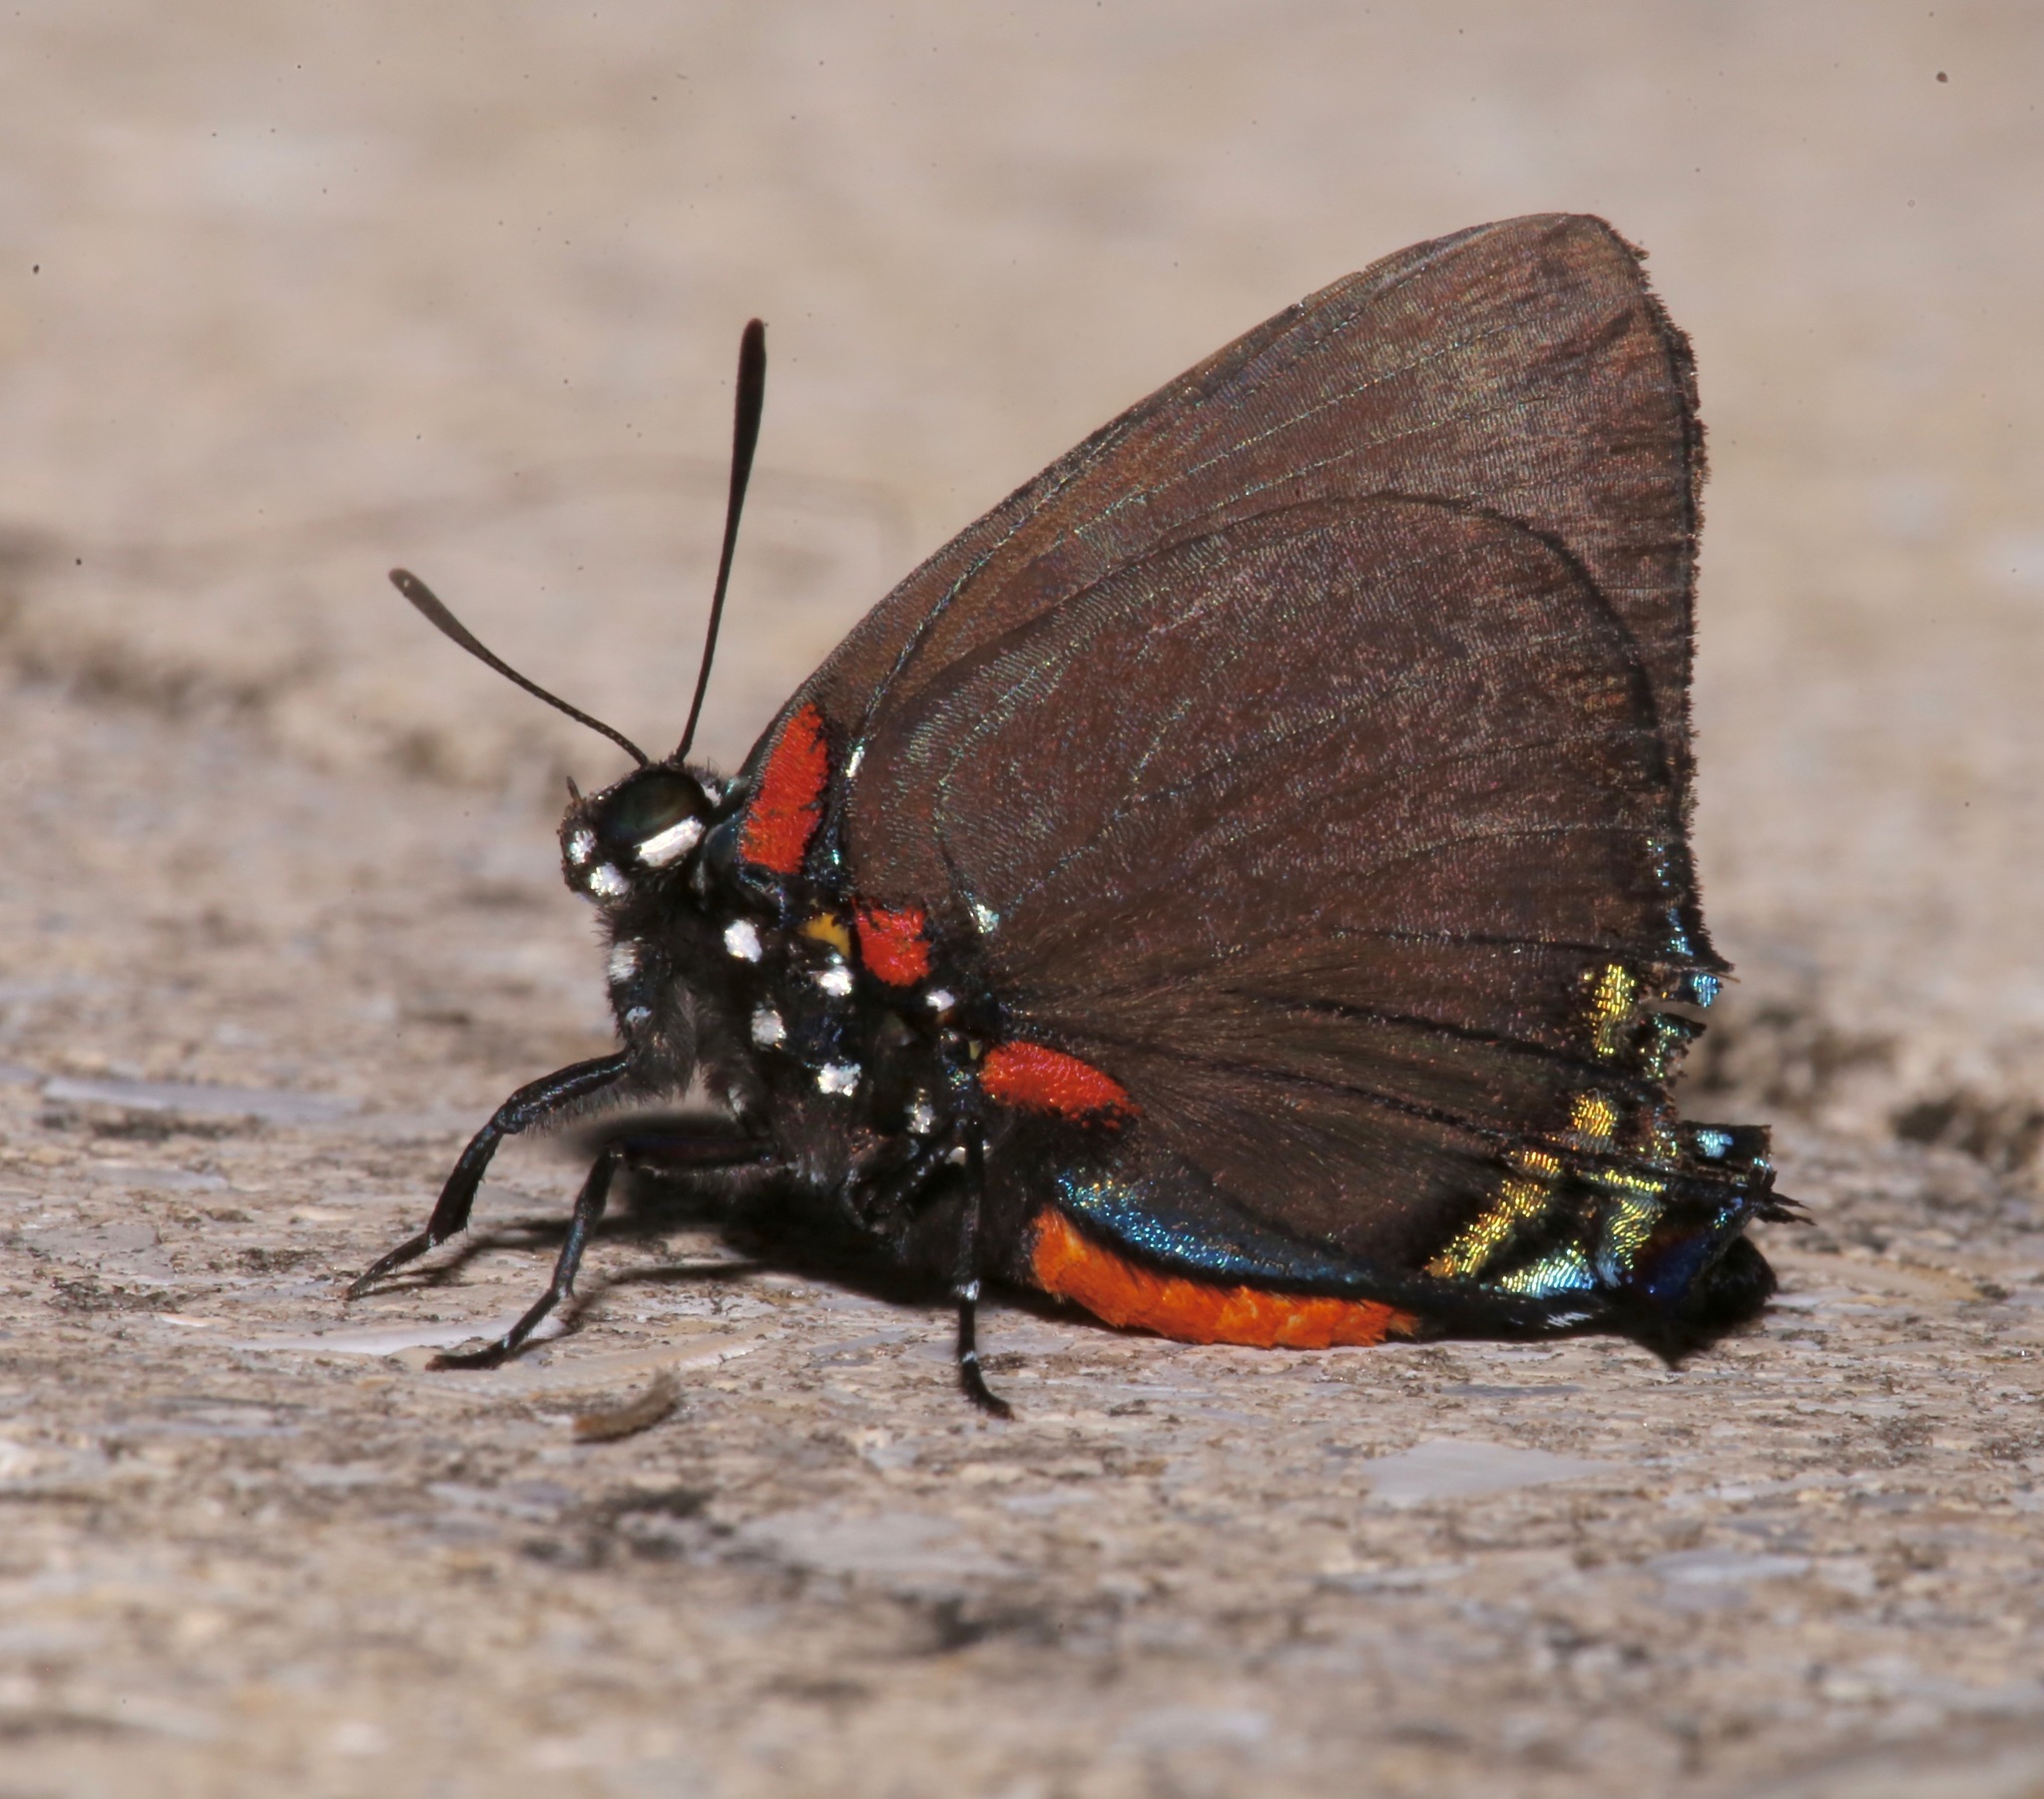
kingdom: Animalia
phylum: Arthropoda
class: Insecta
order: Lepidoptera
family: Lycaenidae
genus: Atlides
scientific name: Atlides halesus
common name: Great purple hairstreak
